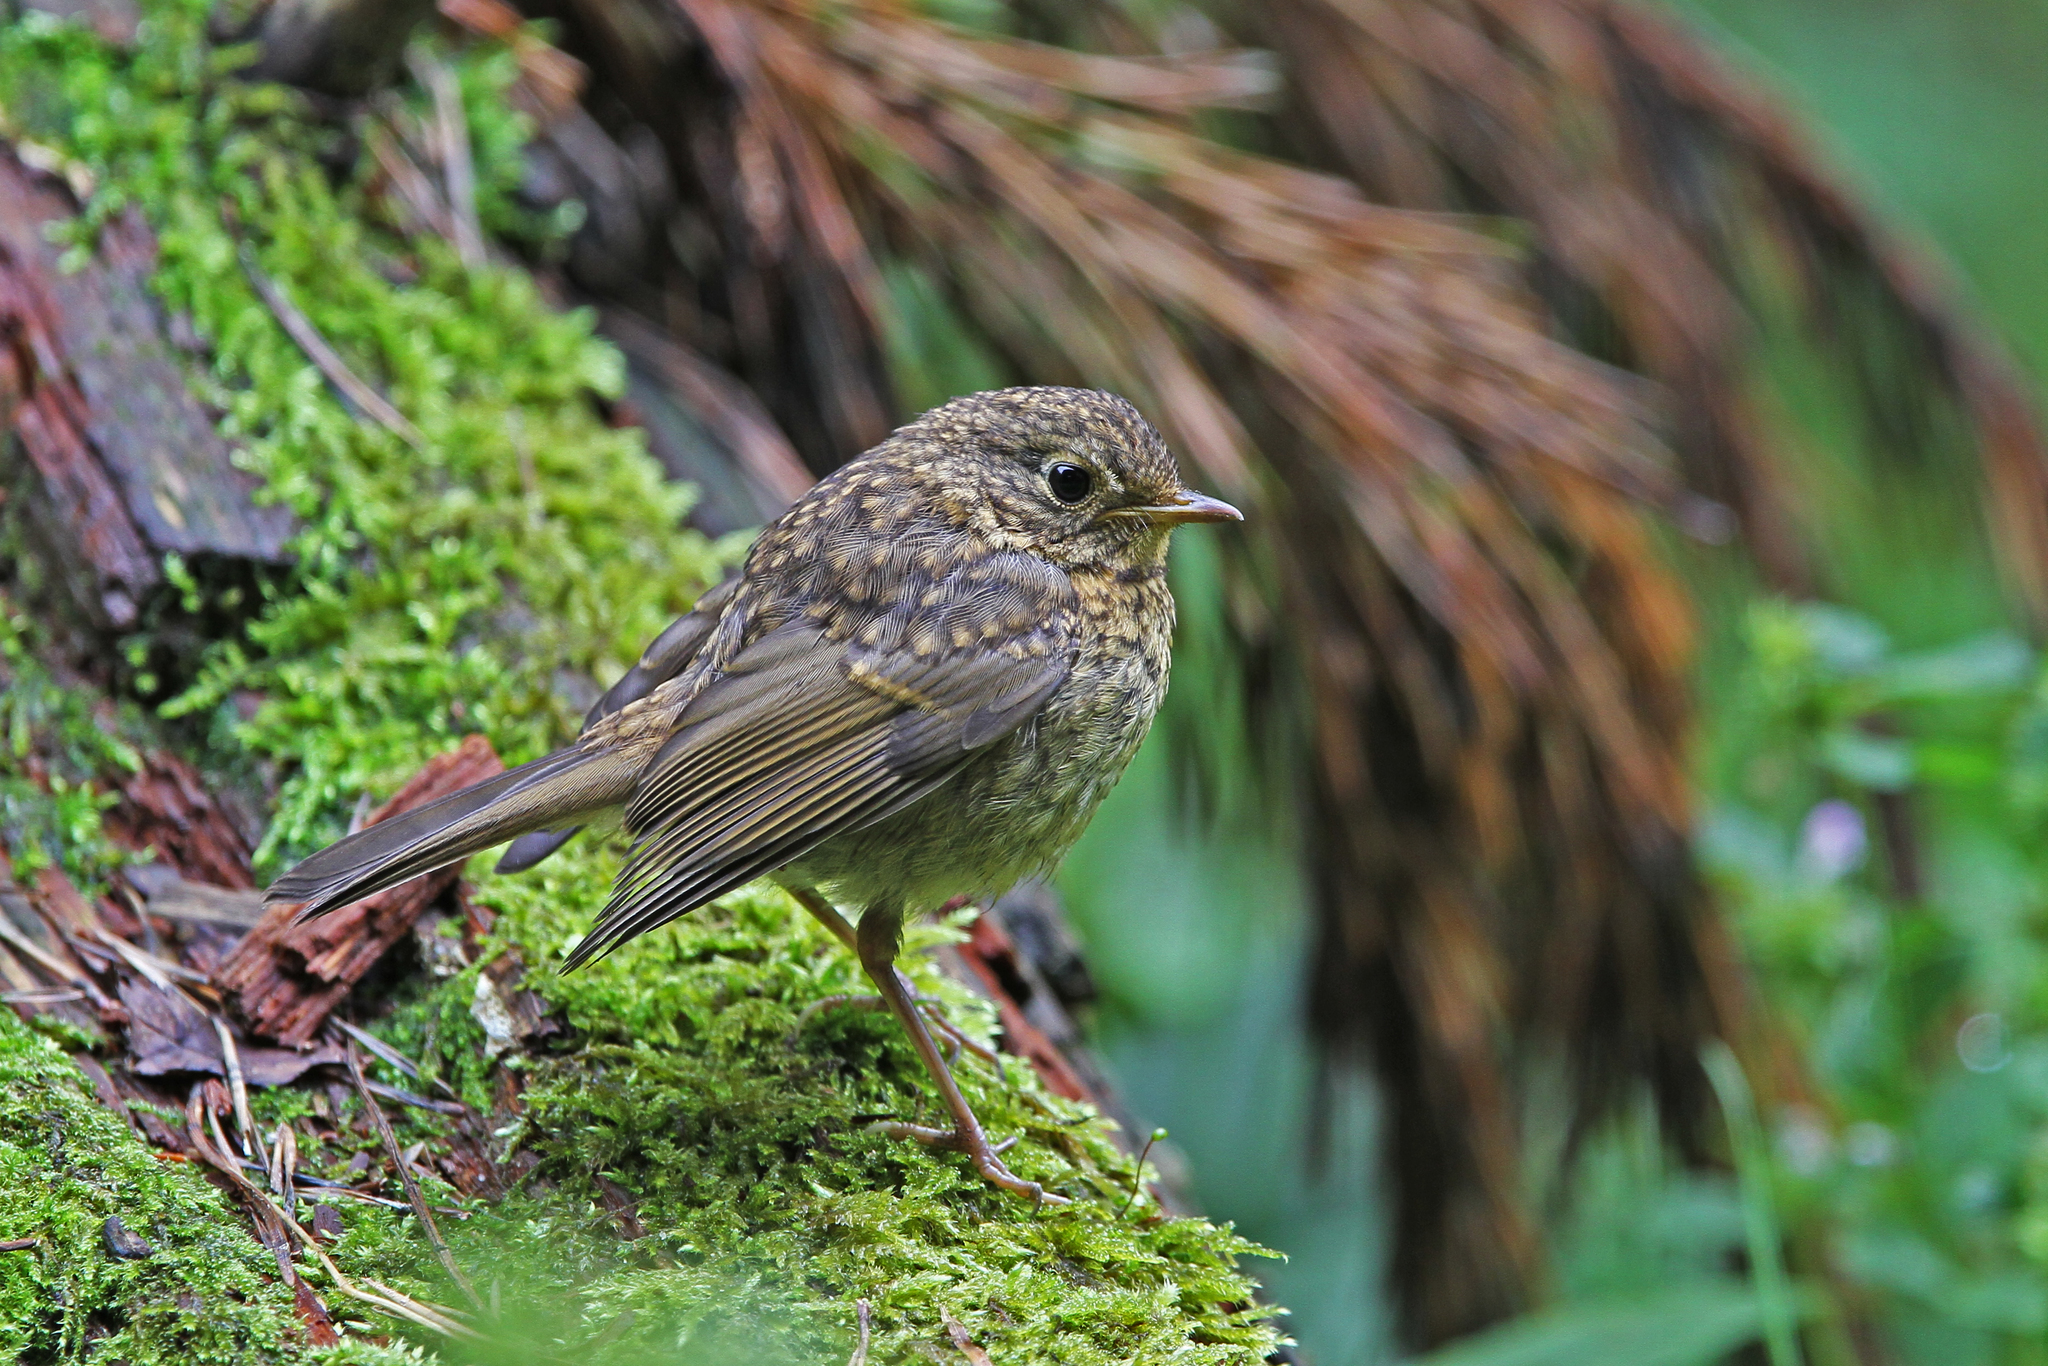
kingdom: Animalia
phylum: Chordata
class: Aves
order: Passeriformes
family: Muscicapidae
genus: Erithacus
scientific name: Erithacus rubecula
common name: European robin
